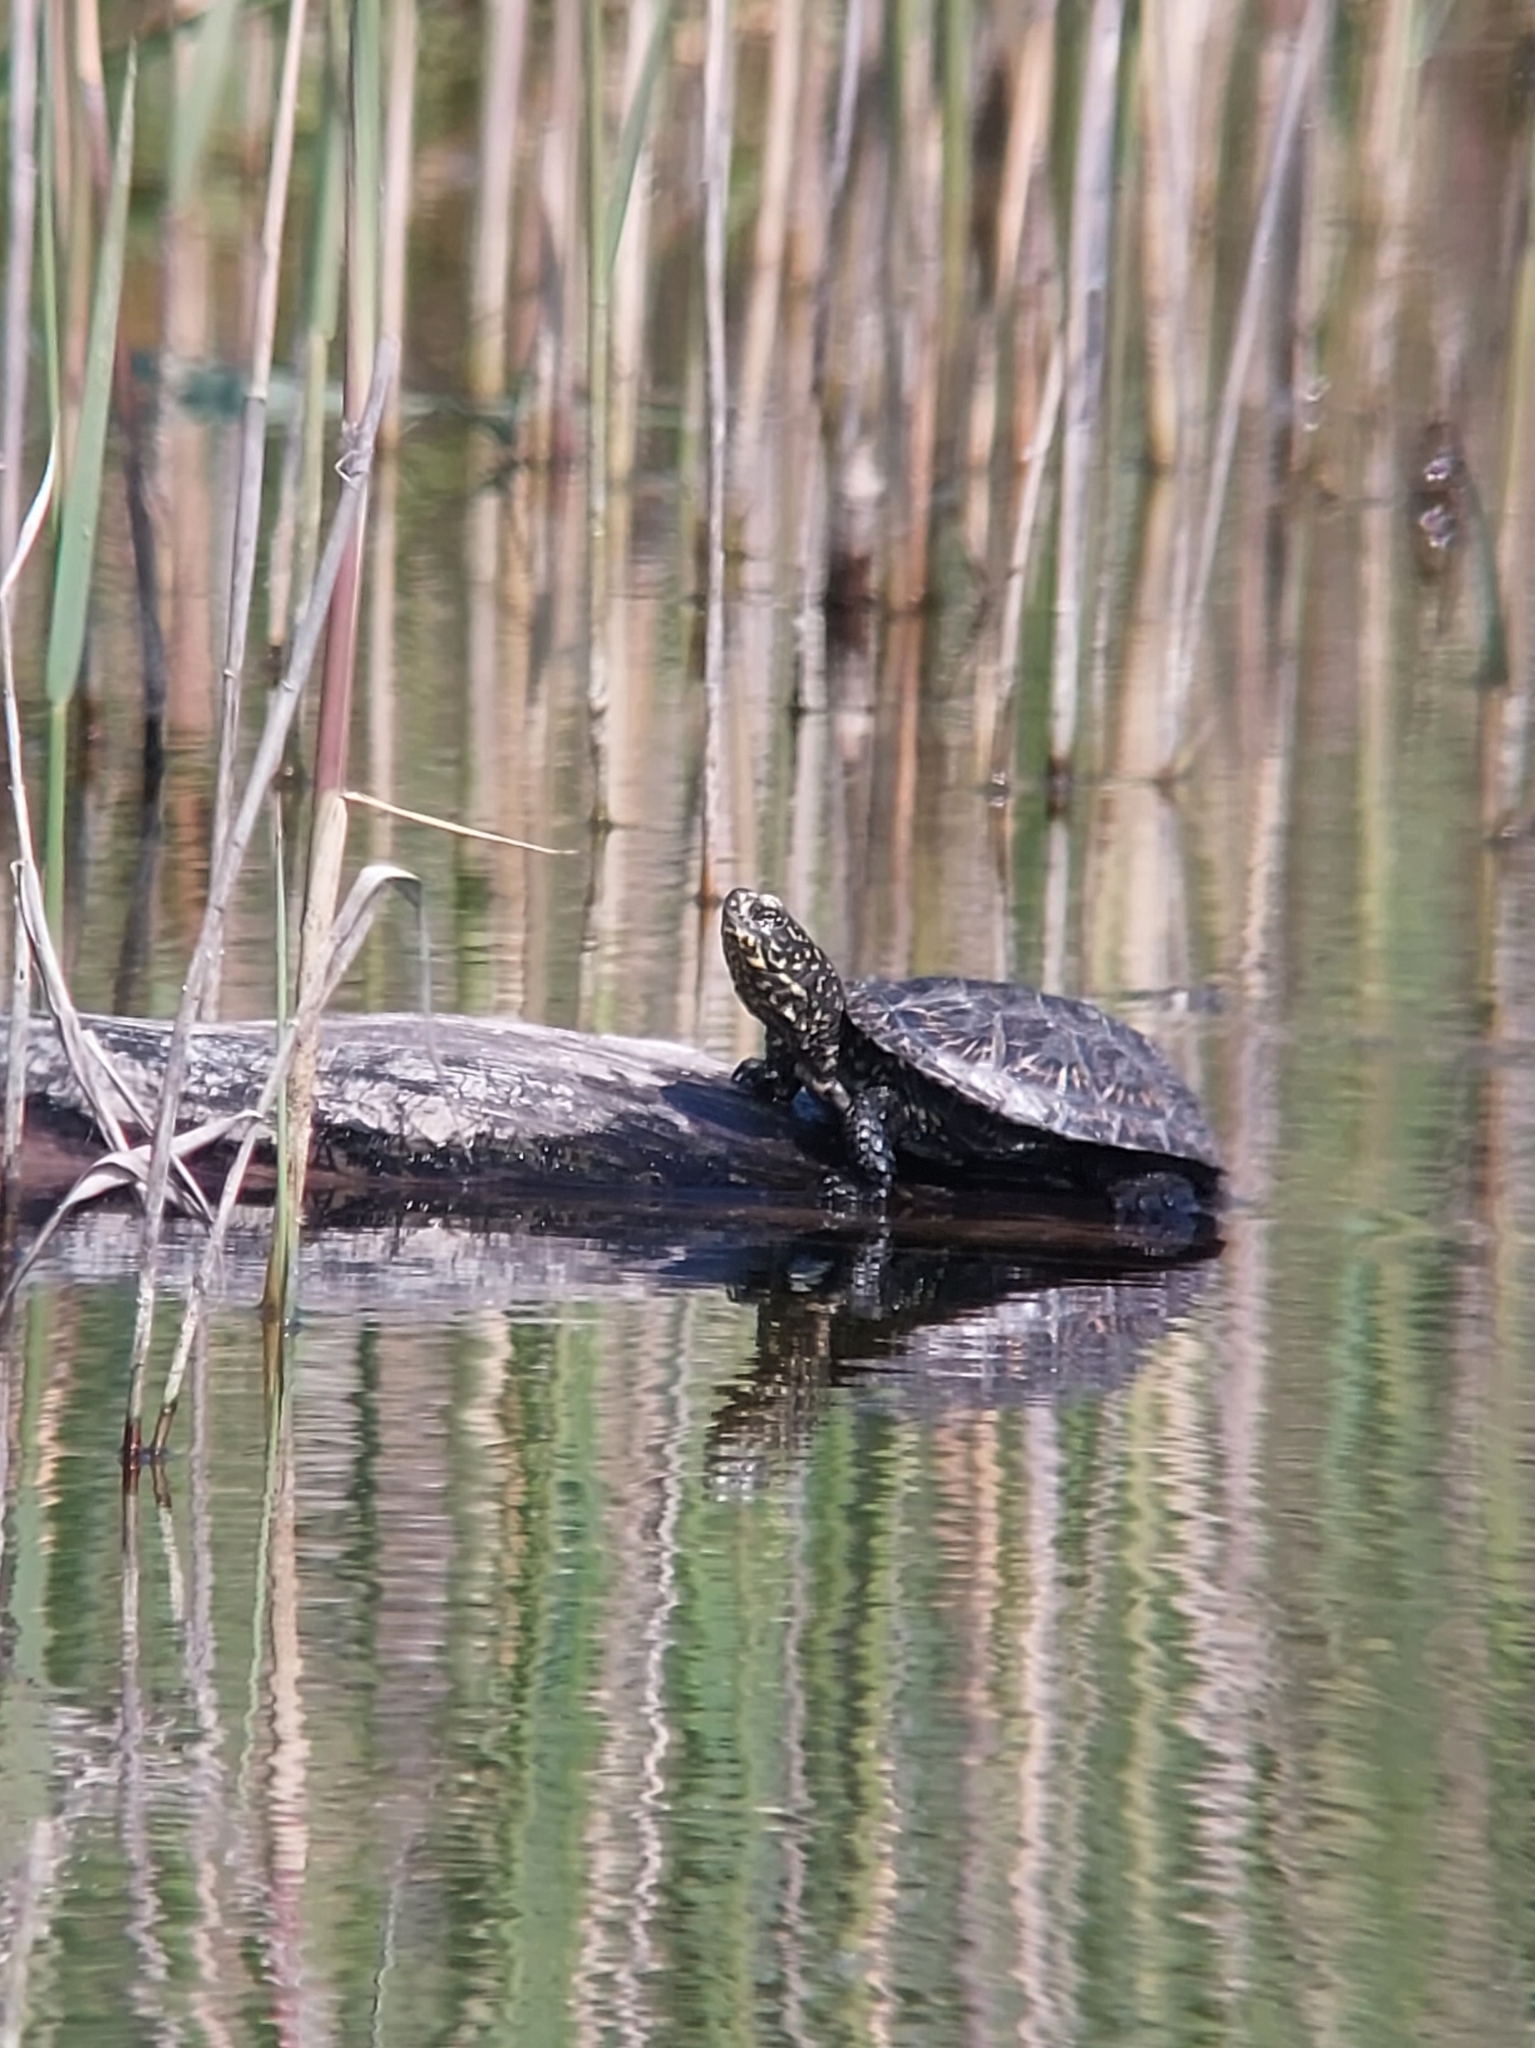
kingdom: Animalia
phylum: Chordata
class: Testudines
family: Emydidae
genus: Emys
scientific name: Emys orbicularis
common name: European pond turtle
